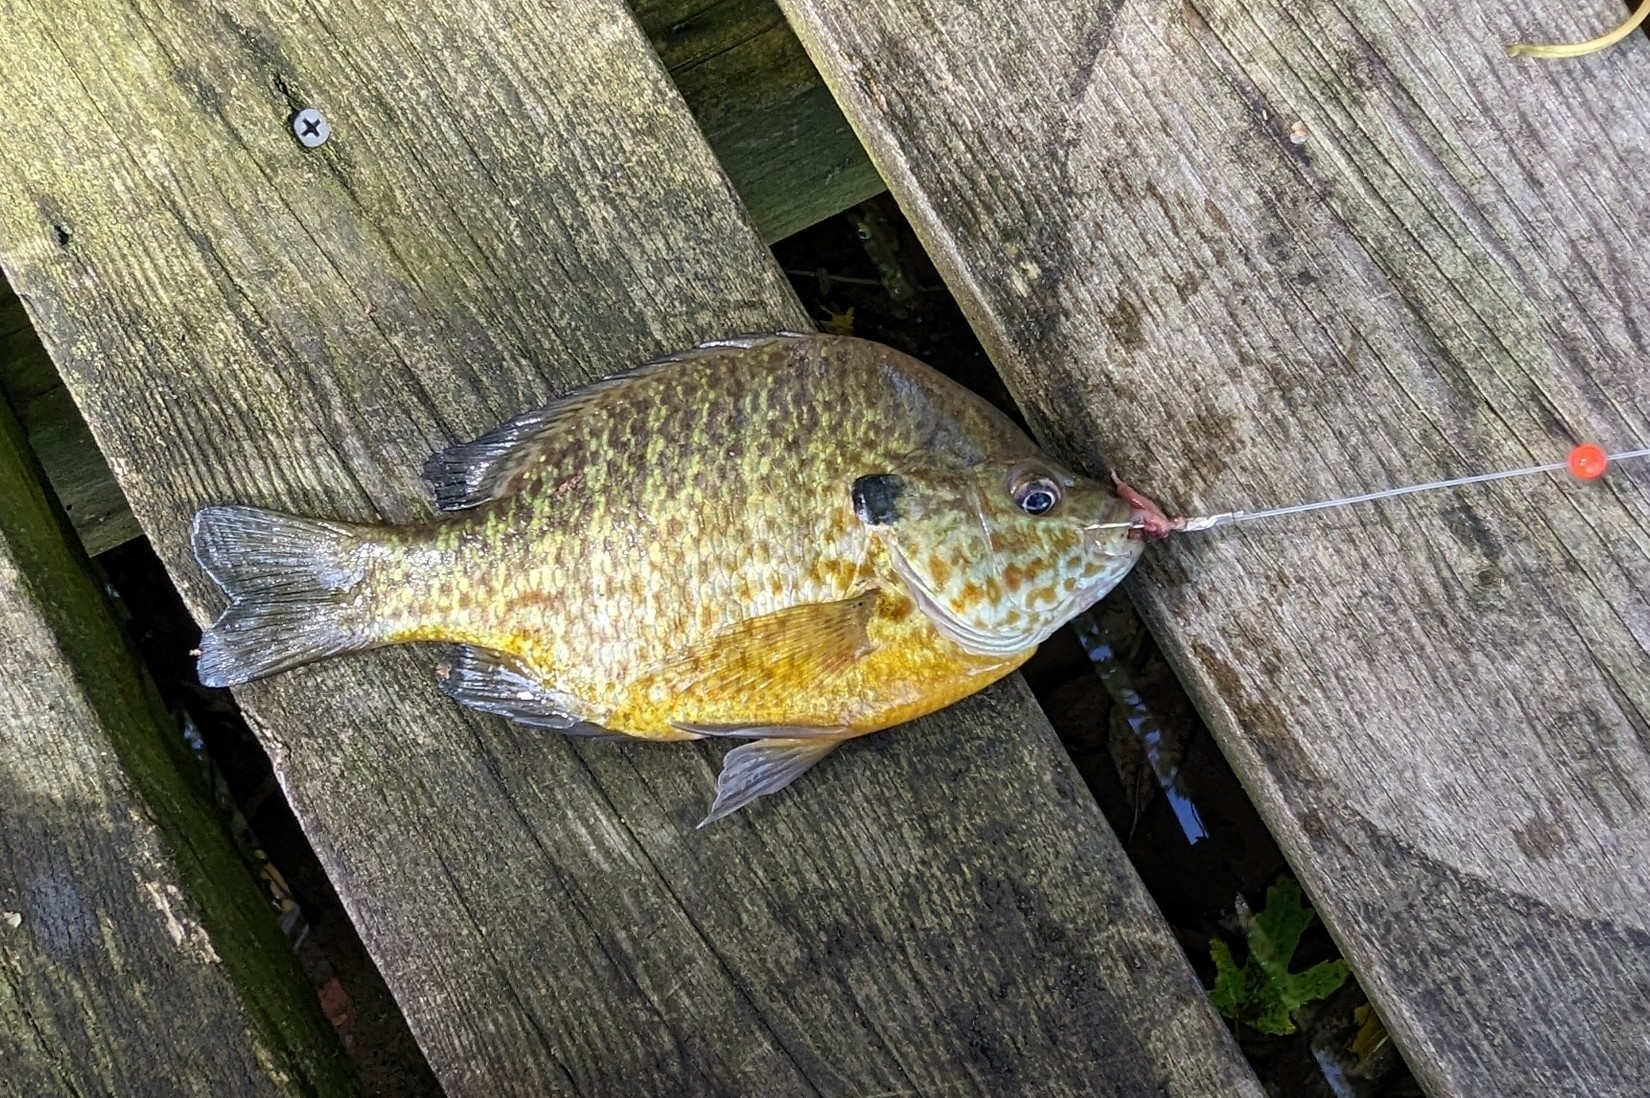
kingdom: Animalia
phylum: Chordata
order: Perciformes
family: Centrarchidae
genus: Lepomis
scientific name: Lepomis
